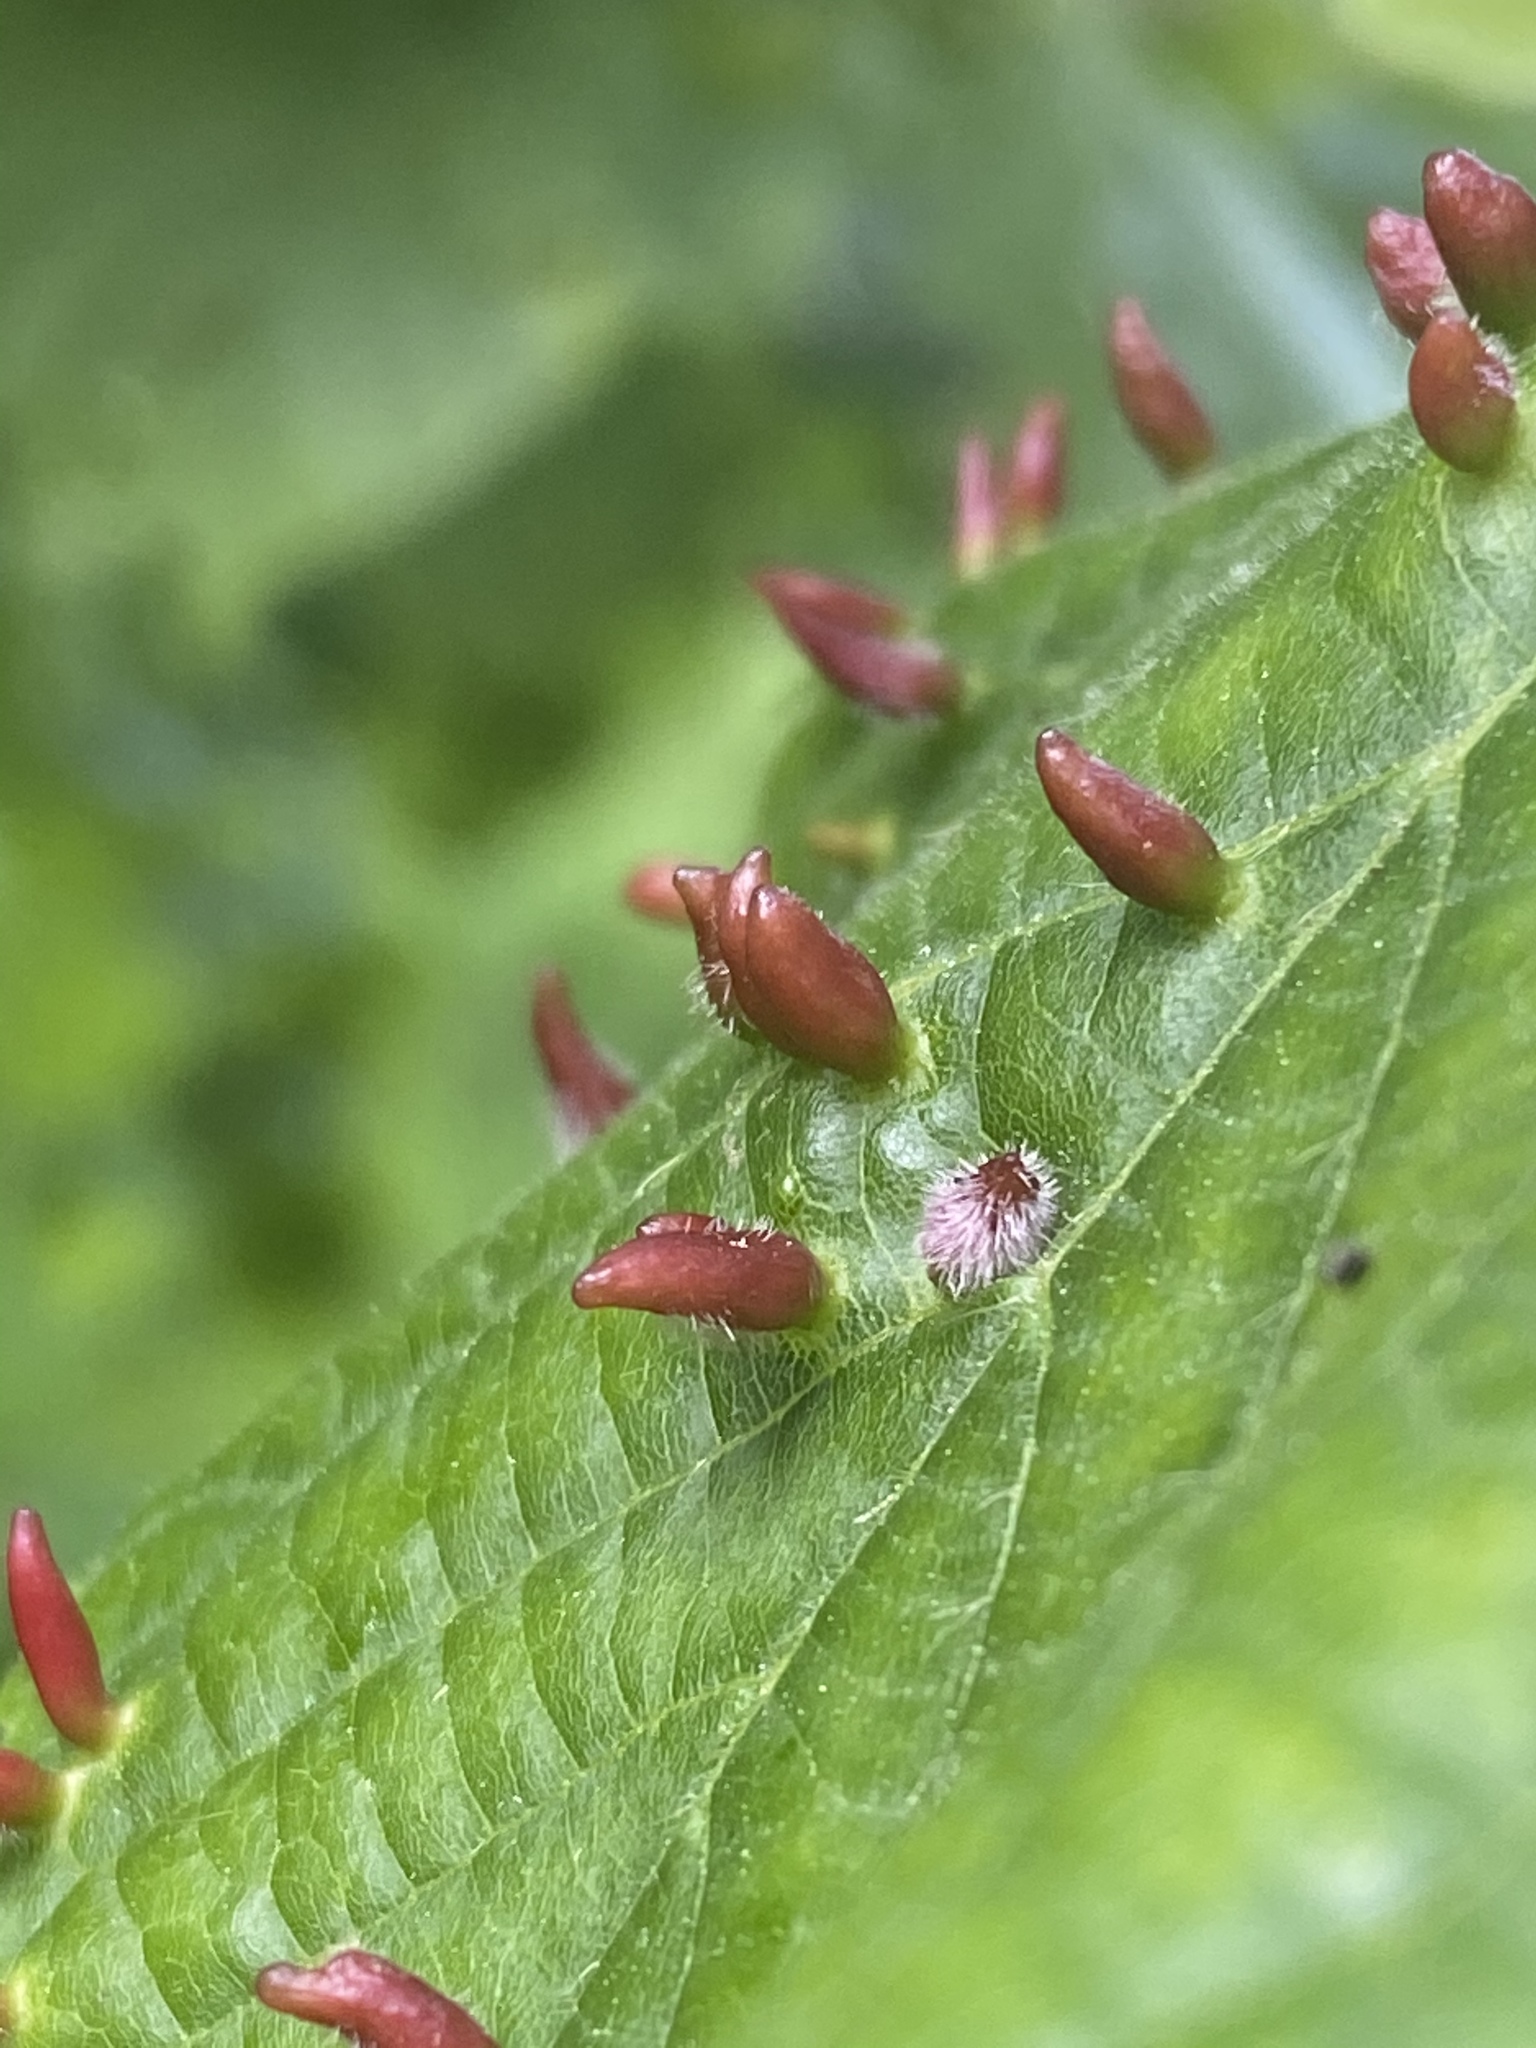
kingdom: Animalia
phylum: Arthropoda
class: Arachnida
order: Trombidiformes
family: Eriophyidae
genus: Eriophyes
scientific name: Eriophyes tiliae
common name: Red nail gall mite
